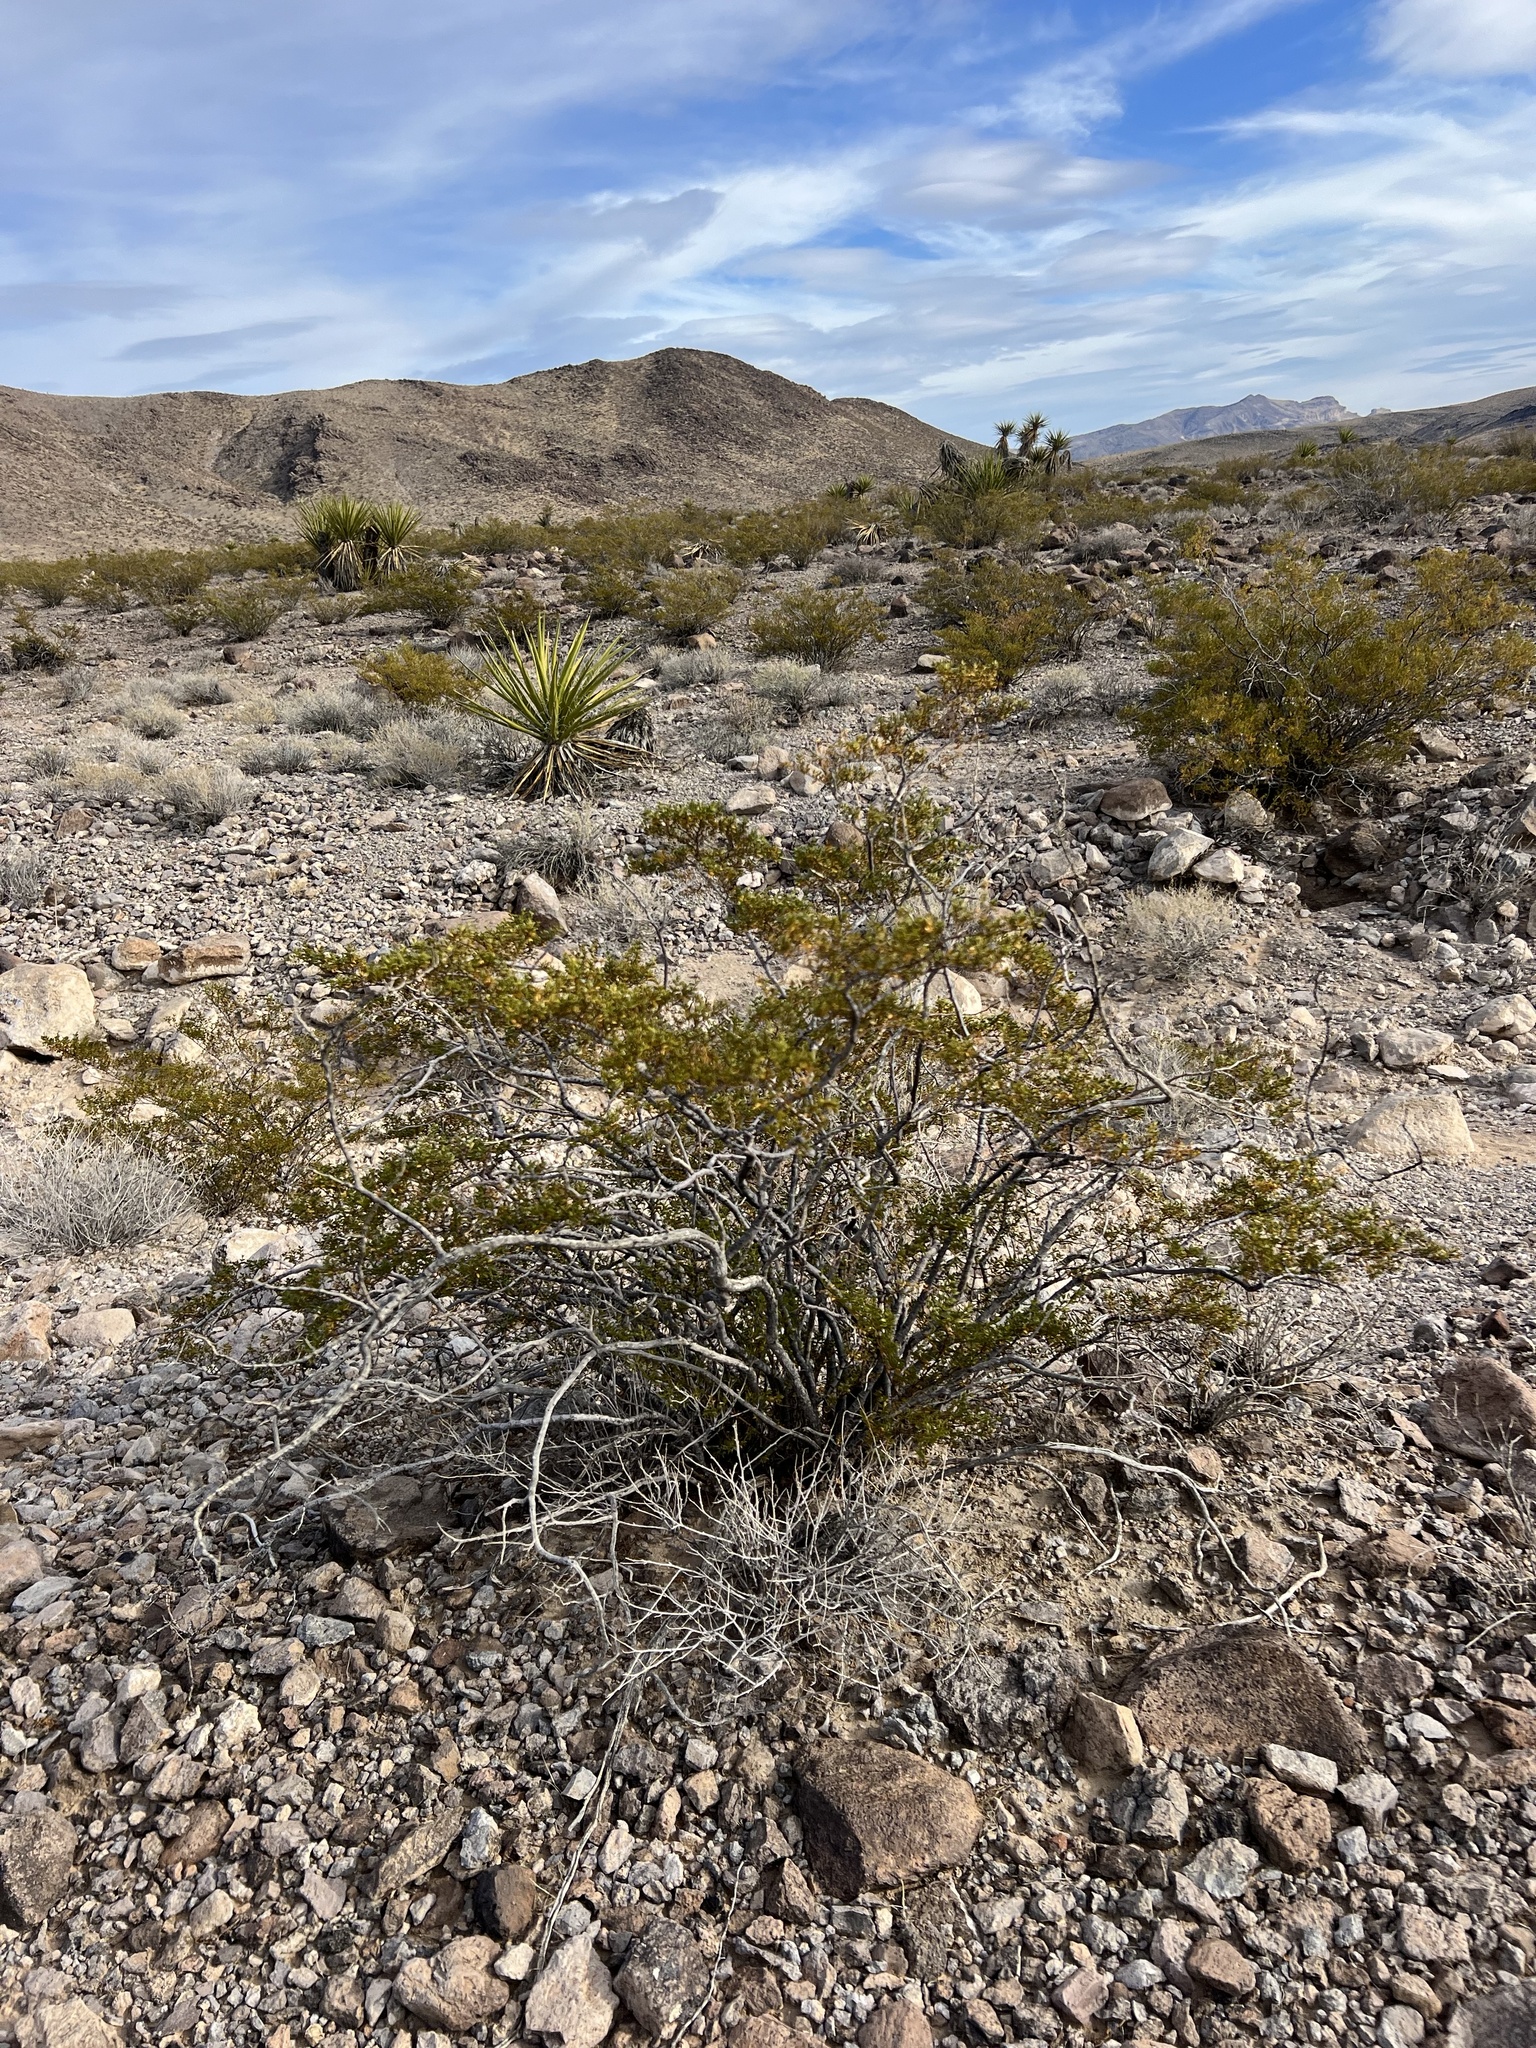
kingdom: Plantae
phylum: Tracheophyta
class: Magnoliopsida
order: Zygophyllales
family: Zygophyllaceae
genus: Larrea
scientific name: Larrea tridentata
